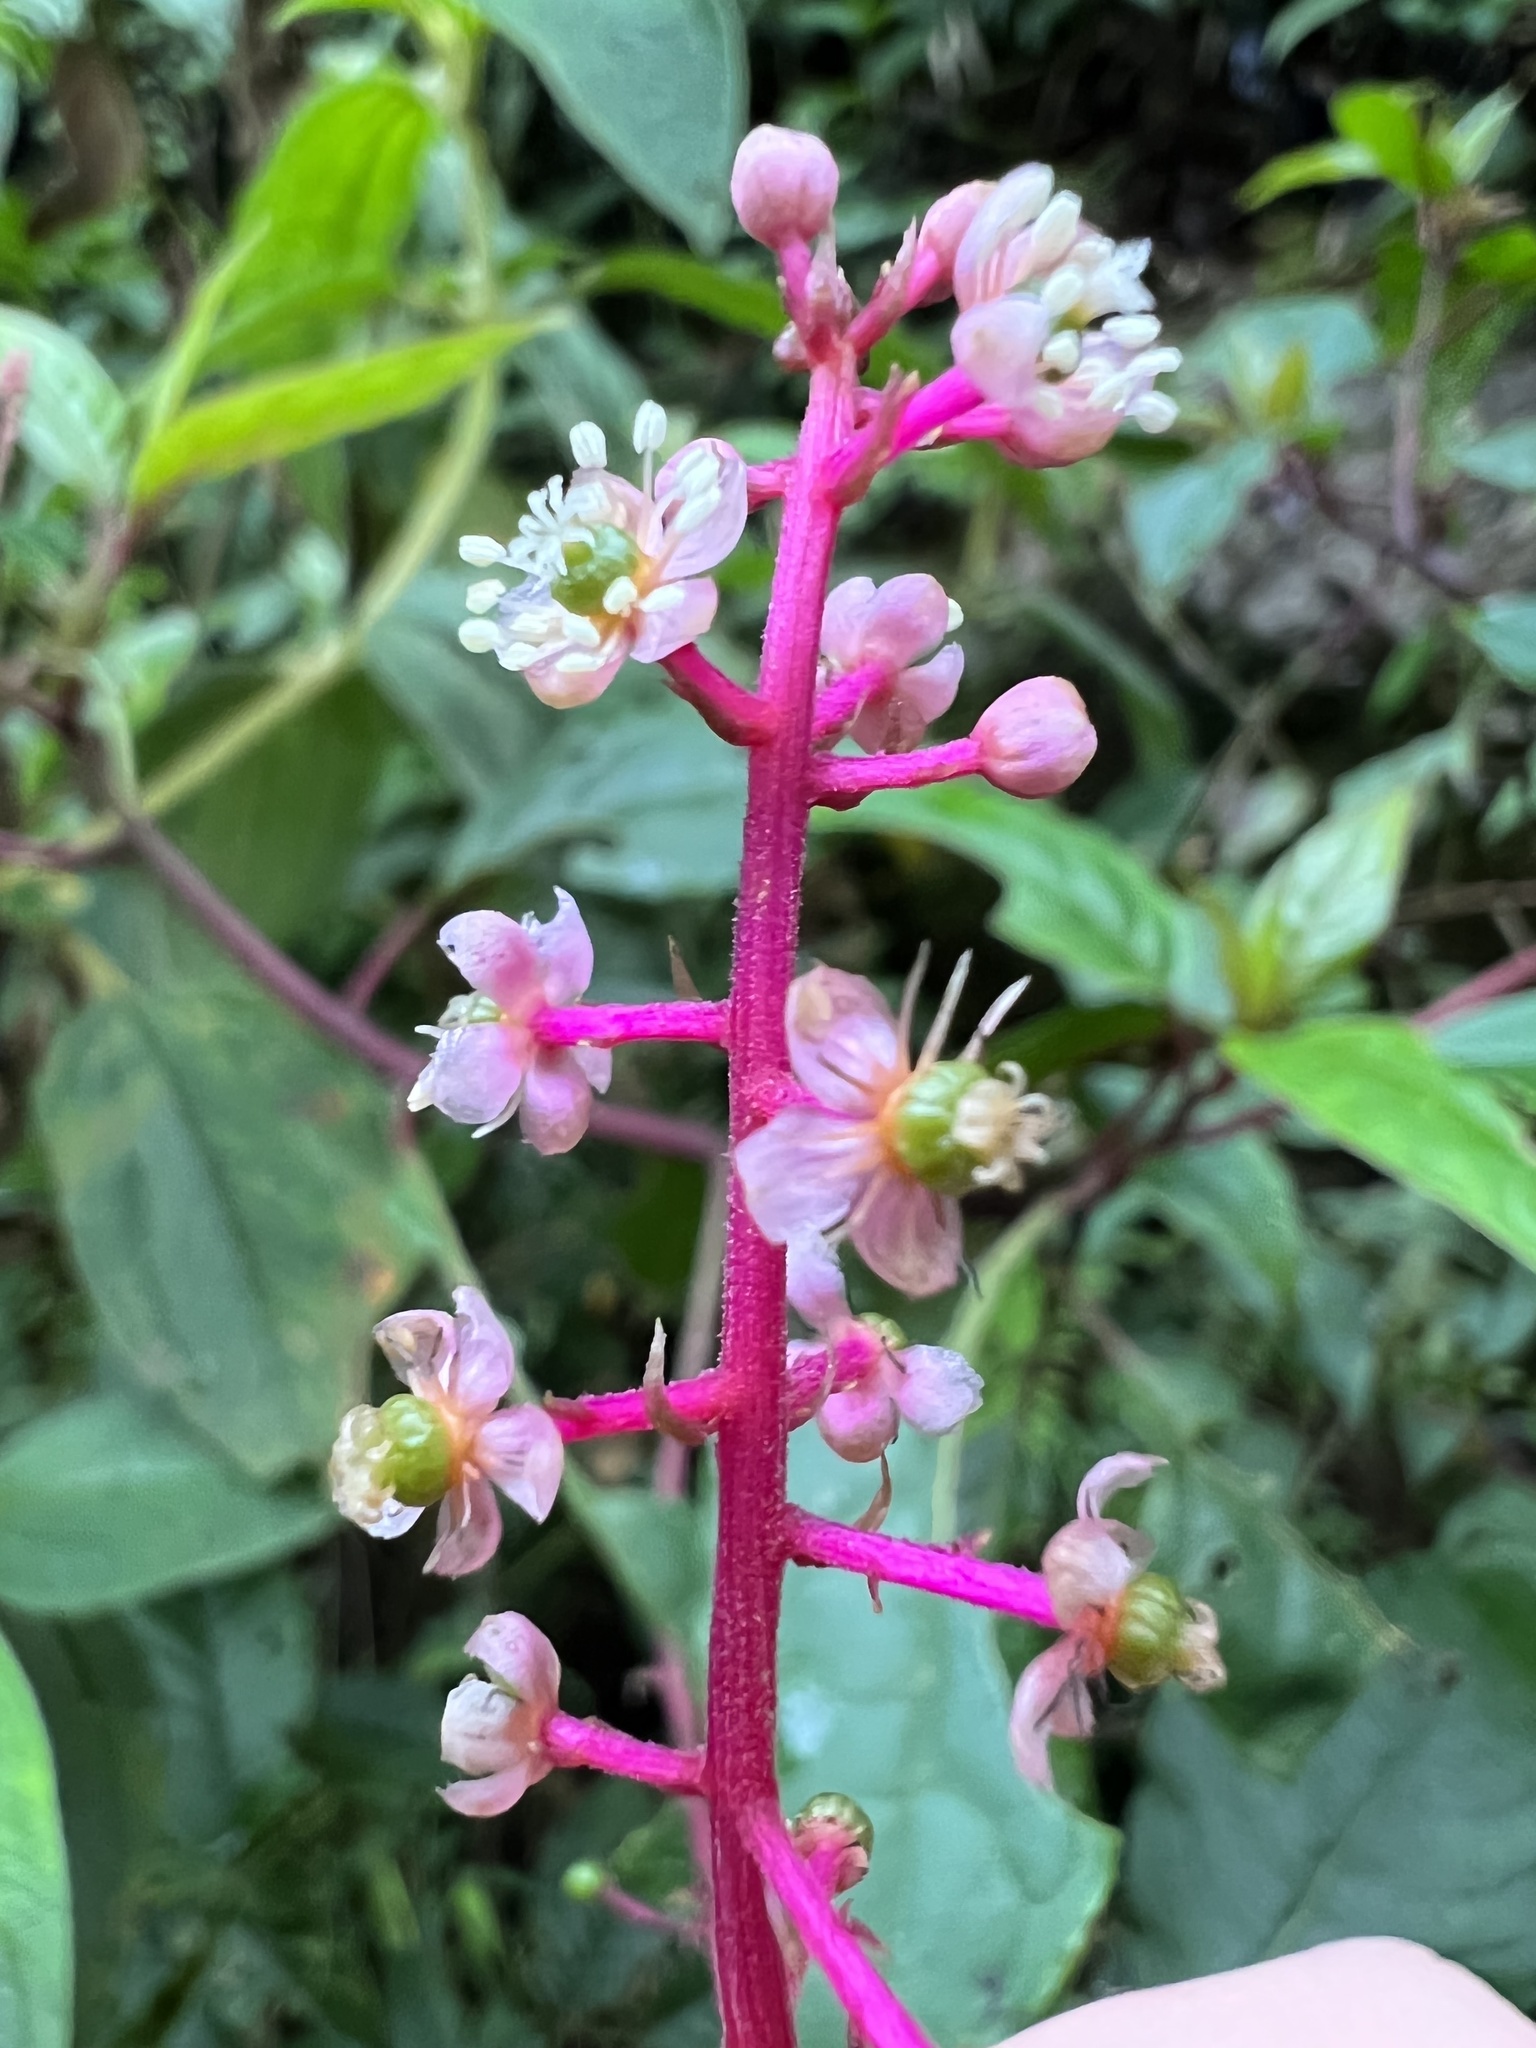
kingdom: Plantae
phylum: Tracheophyta
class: Magnoliopsida
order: Caryophyllales
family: Phytolaccaceae
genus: Phytolacca
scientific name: Phytolacca rivinoides
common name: Venezuelan pokeweed
